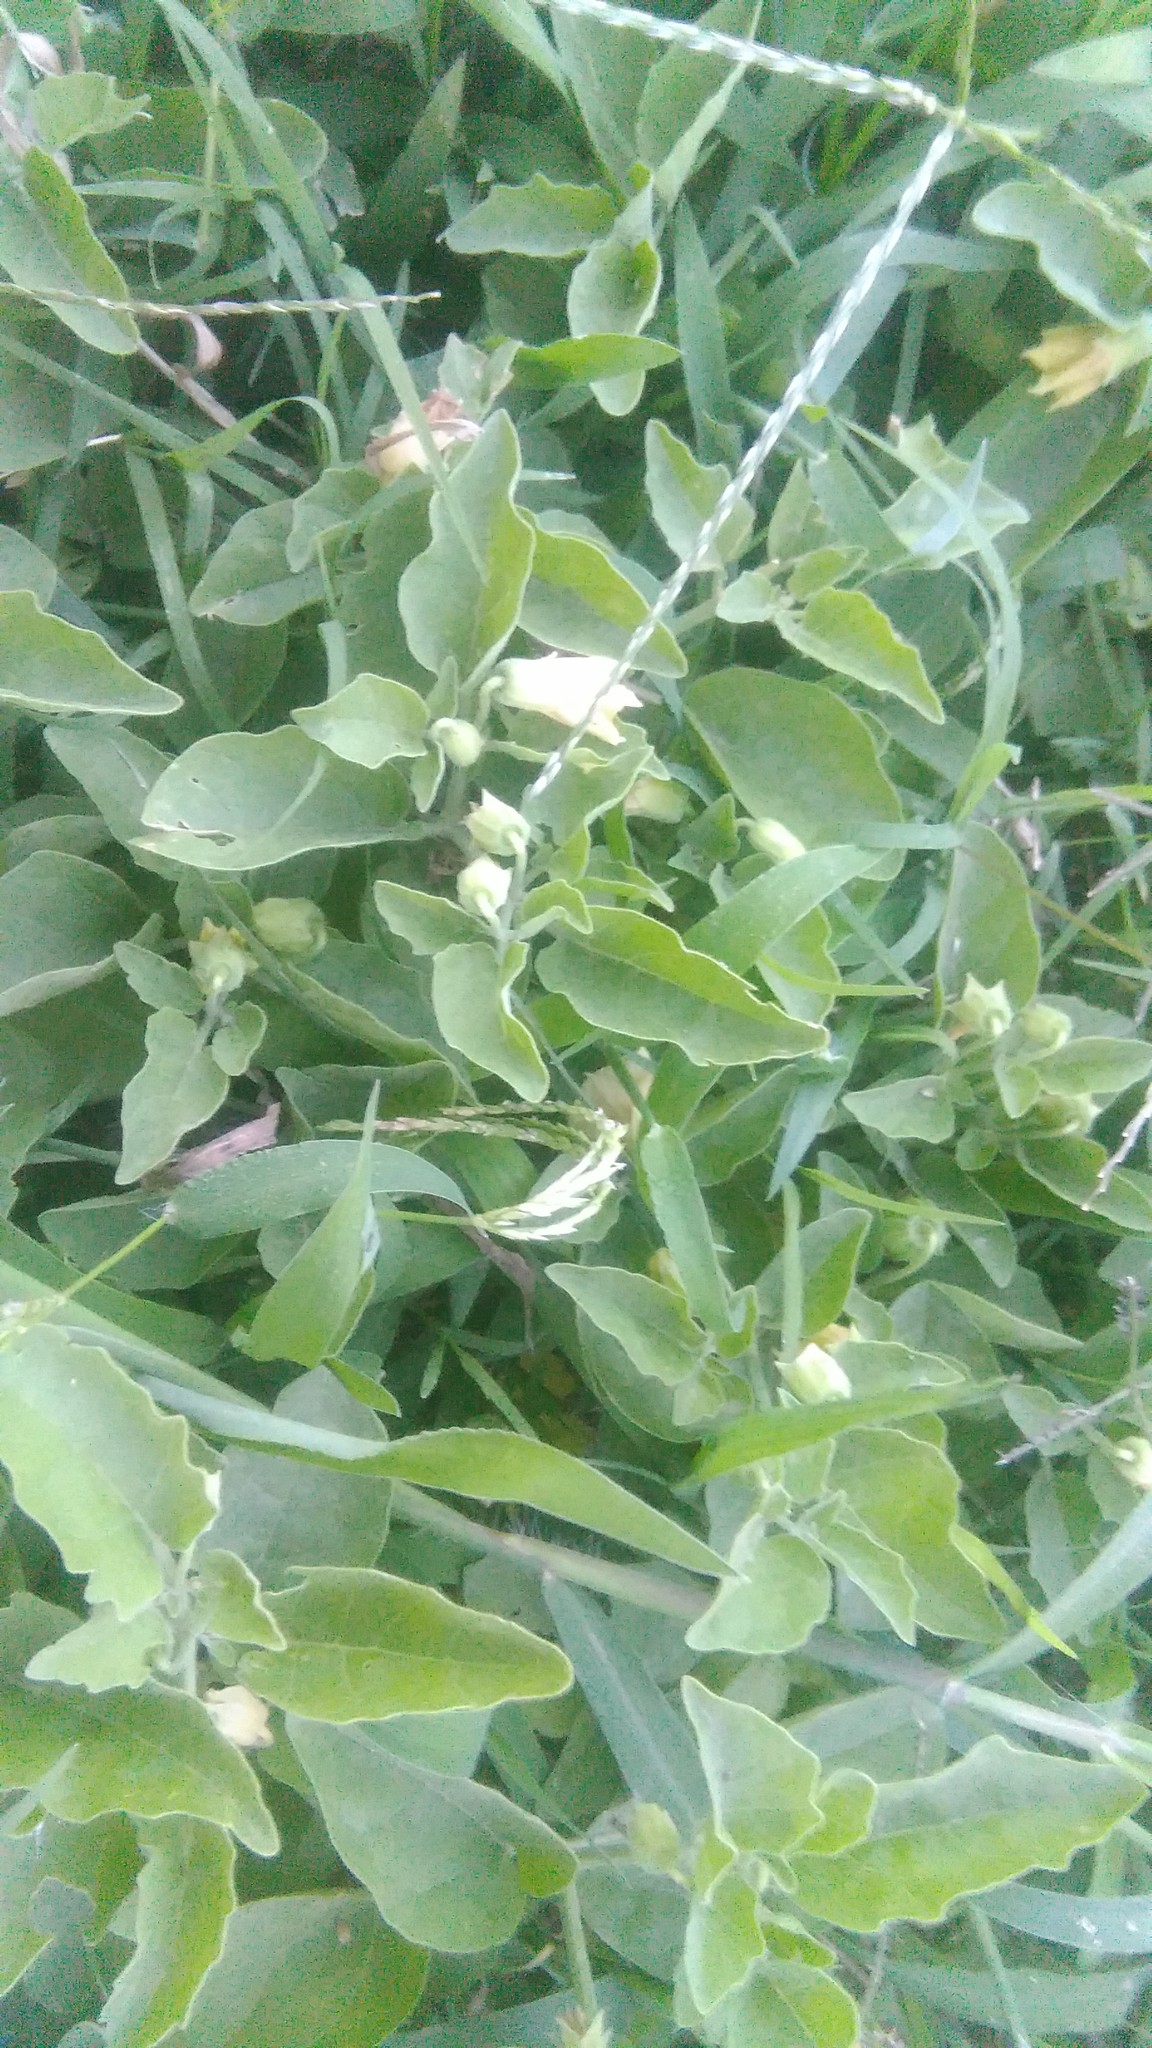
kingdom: Plantae
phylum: Tracheophyta
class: Magnoliopsida
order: Solanales
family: Solanaceae
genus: Physalis
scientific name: Physalis viscosa
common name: Stellate ground-cherry
